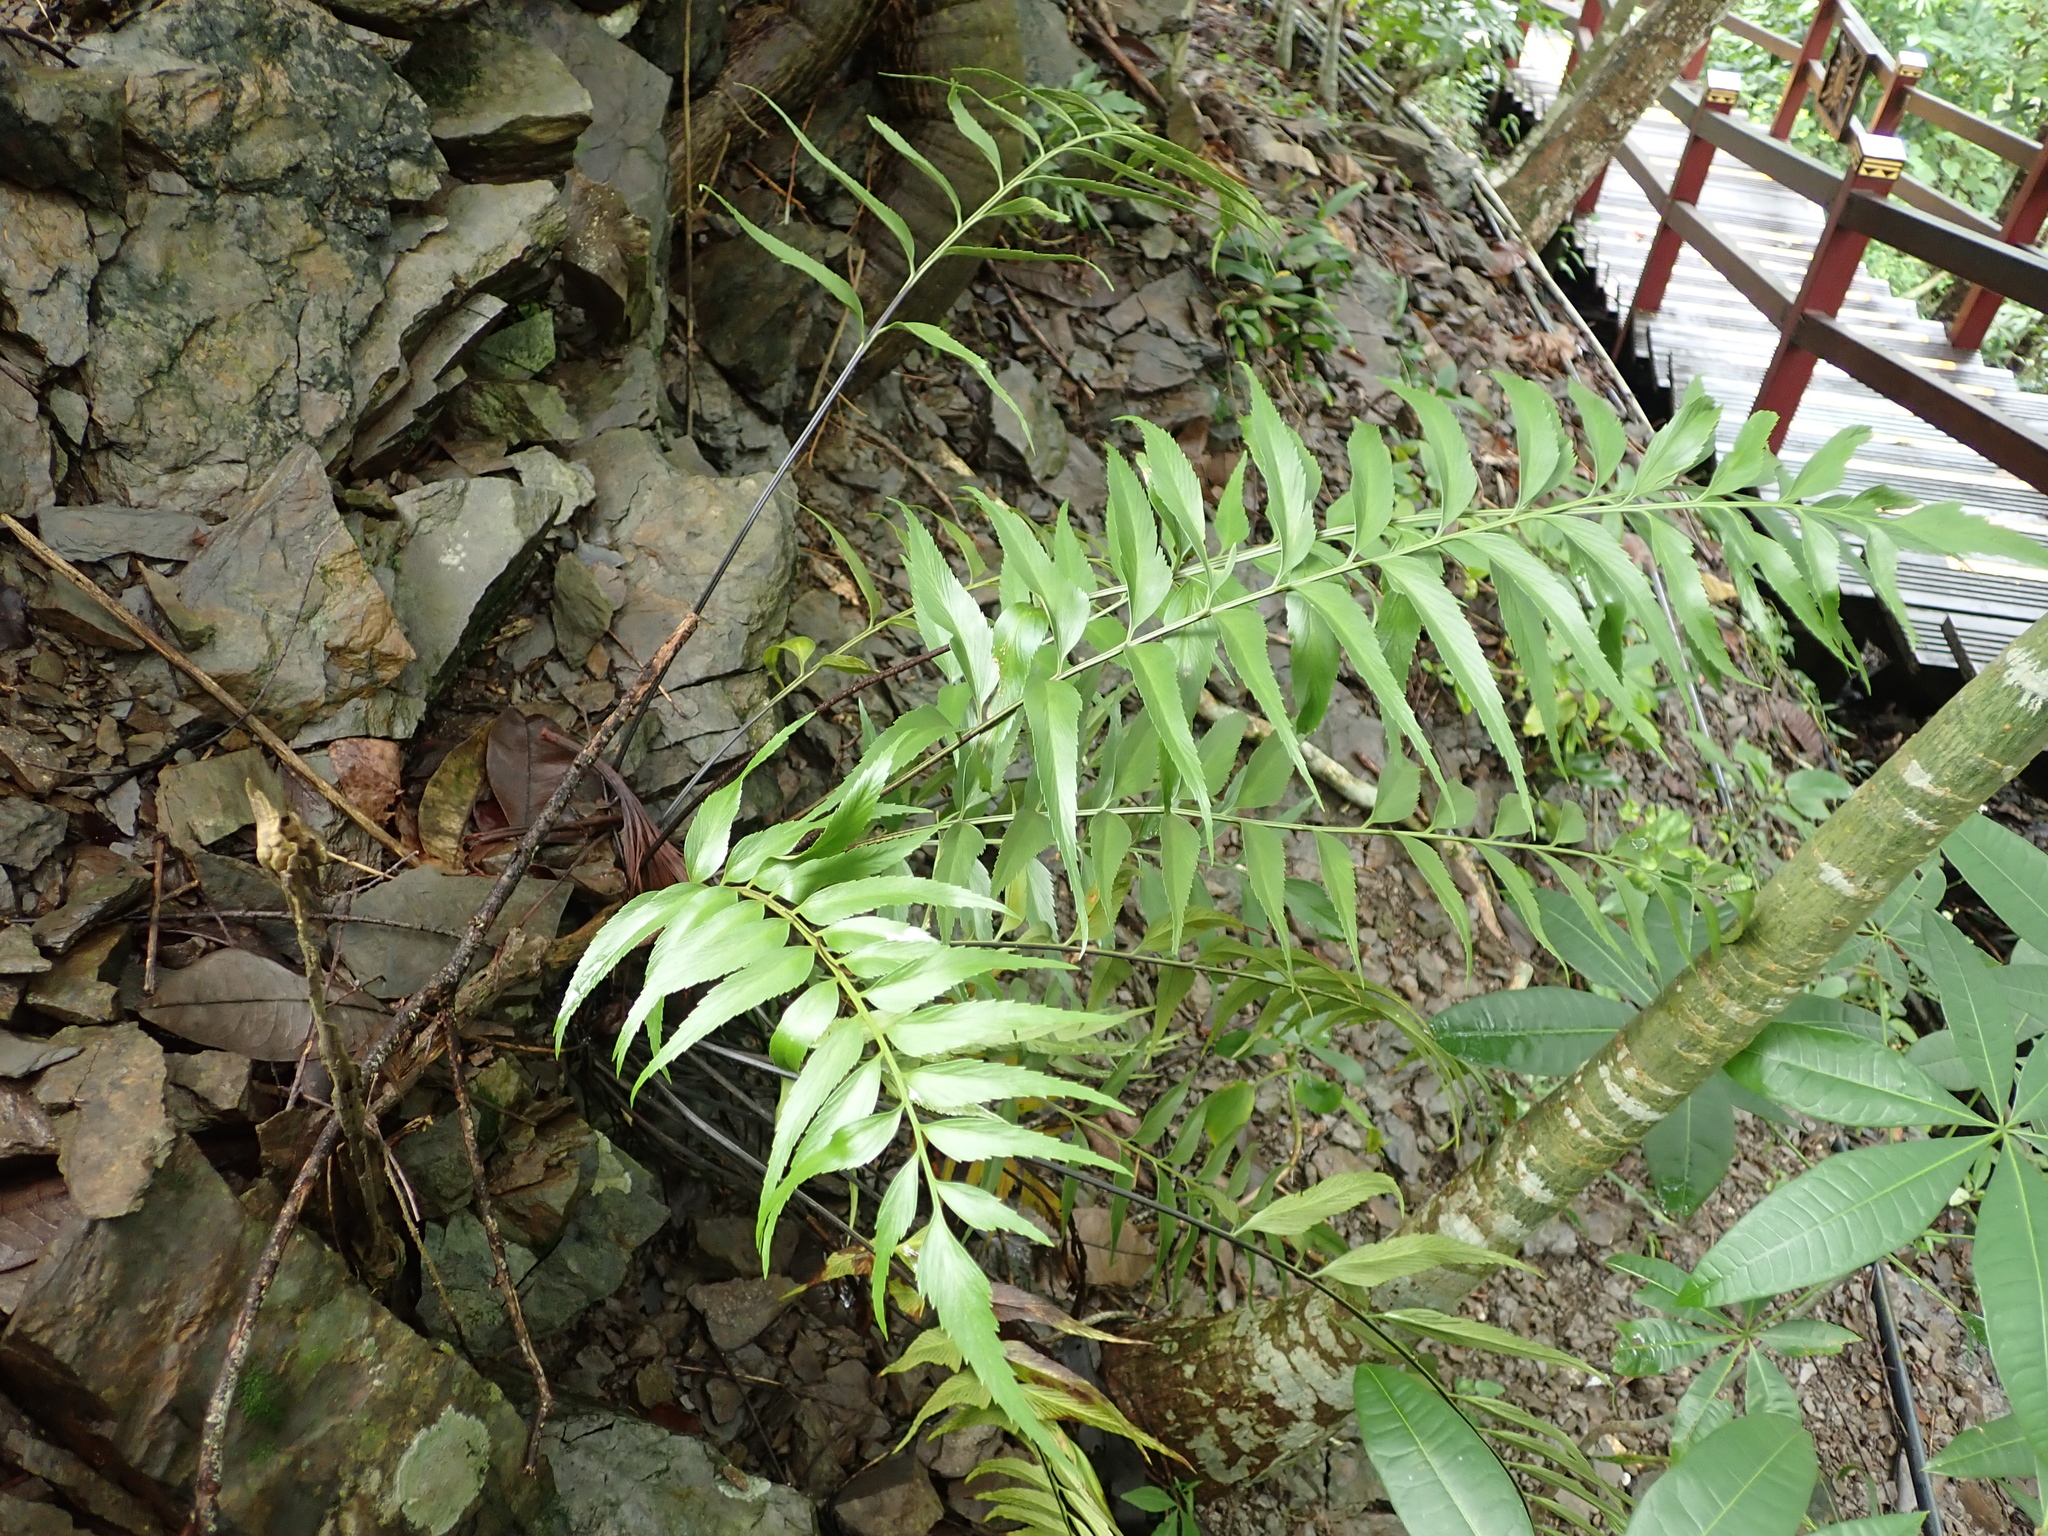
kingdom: Plantae
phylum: Tracheophyta
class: Polypodiopsida
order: Polypodiales
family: Aspleniaceae
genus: Asplenium
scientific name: Asplenium falcatum
